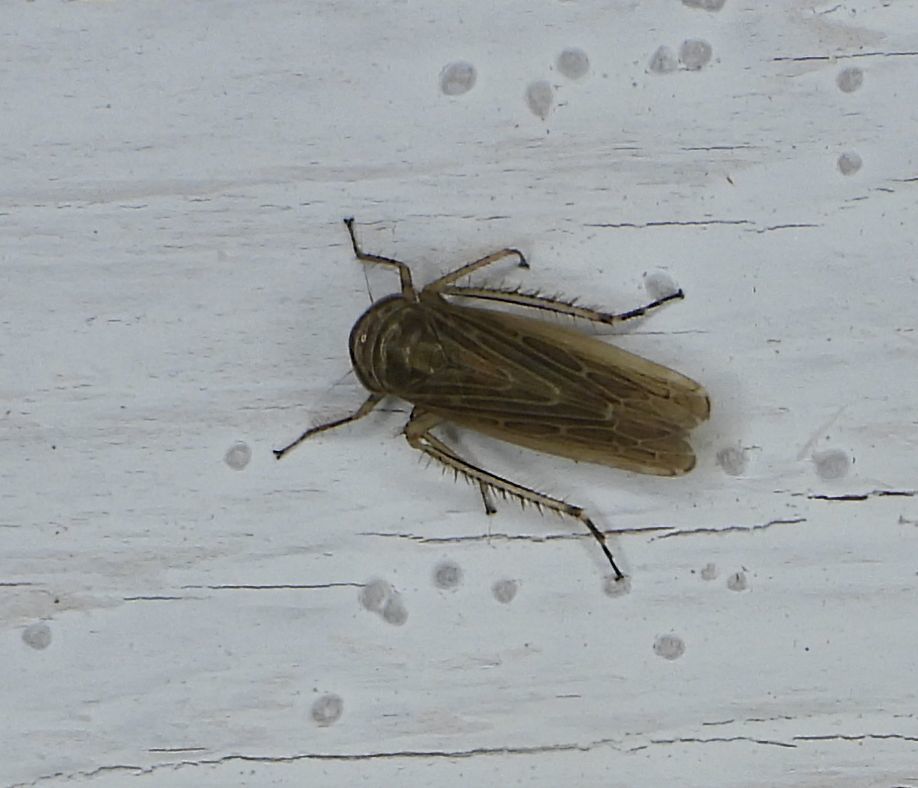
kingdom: Animalia
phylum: Arthropoda
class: Insecta
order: Hemiptera
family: Cicadellidae
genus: Paramesus
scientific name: Paramesus major
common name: Leafhopper
